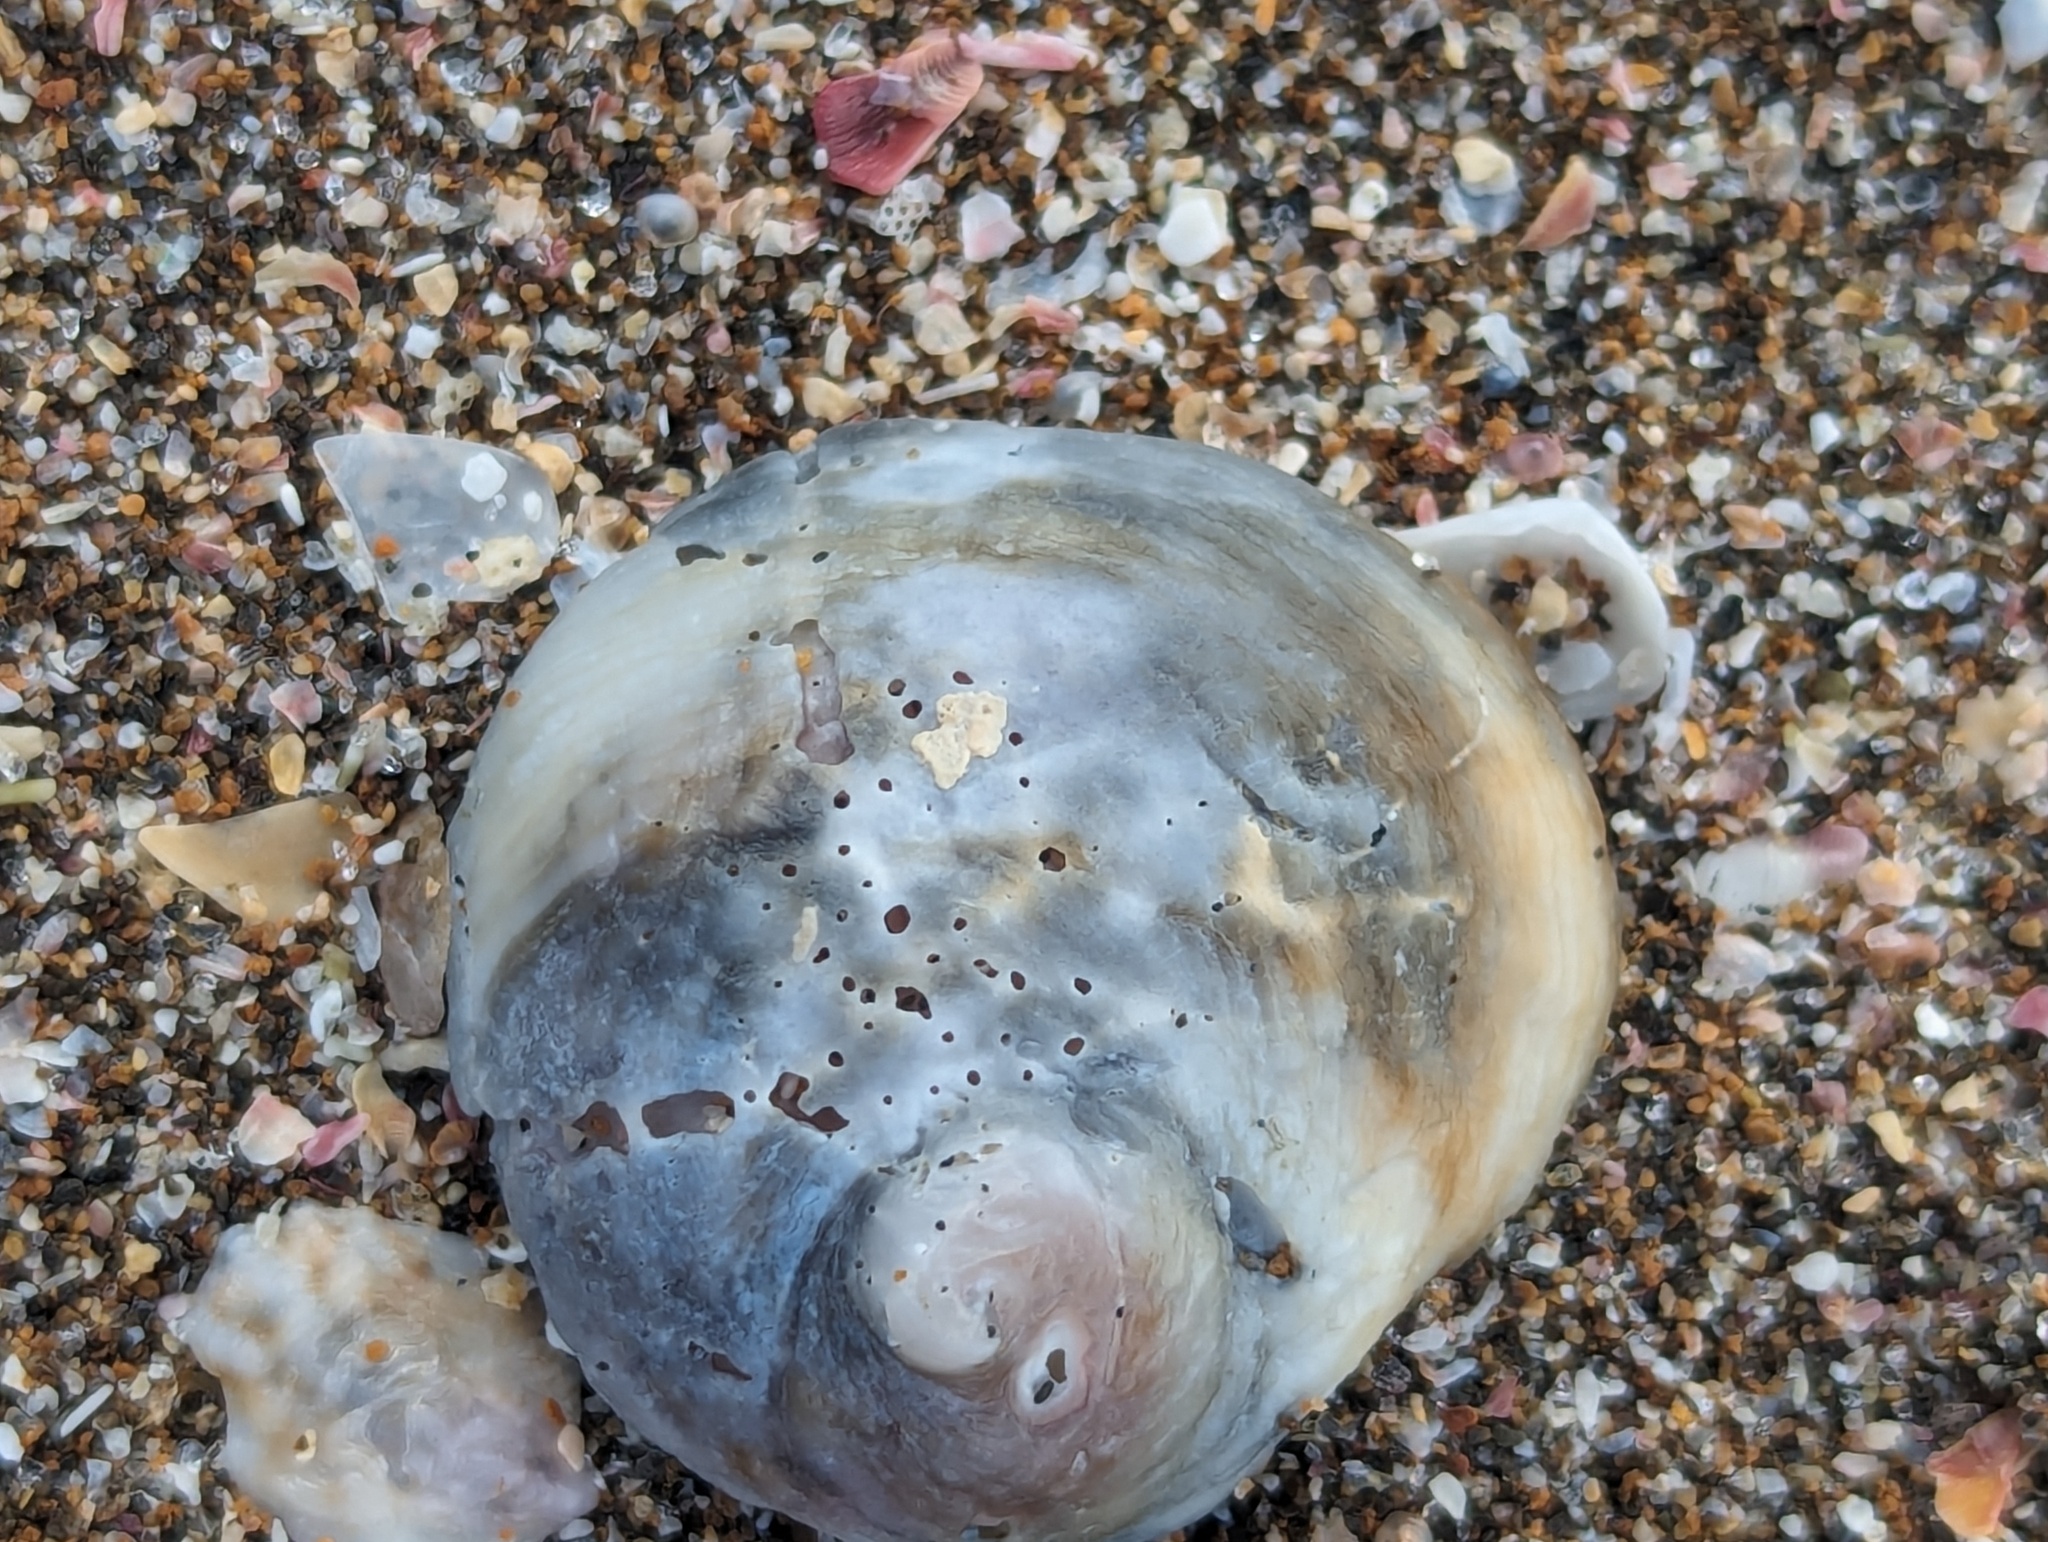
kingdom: Animalia
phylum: Mollusca
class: Gastropoda
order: Littorinimorpha
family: Calyptraeidae
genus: Sigapatella
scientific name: Sigapatella novaezelandiae
